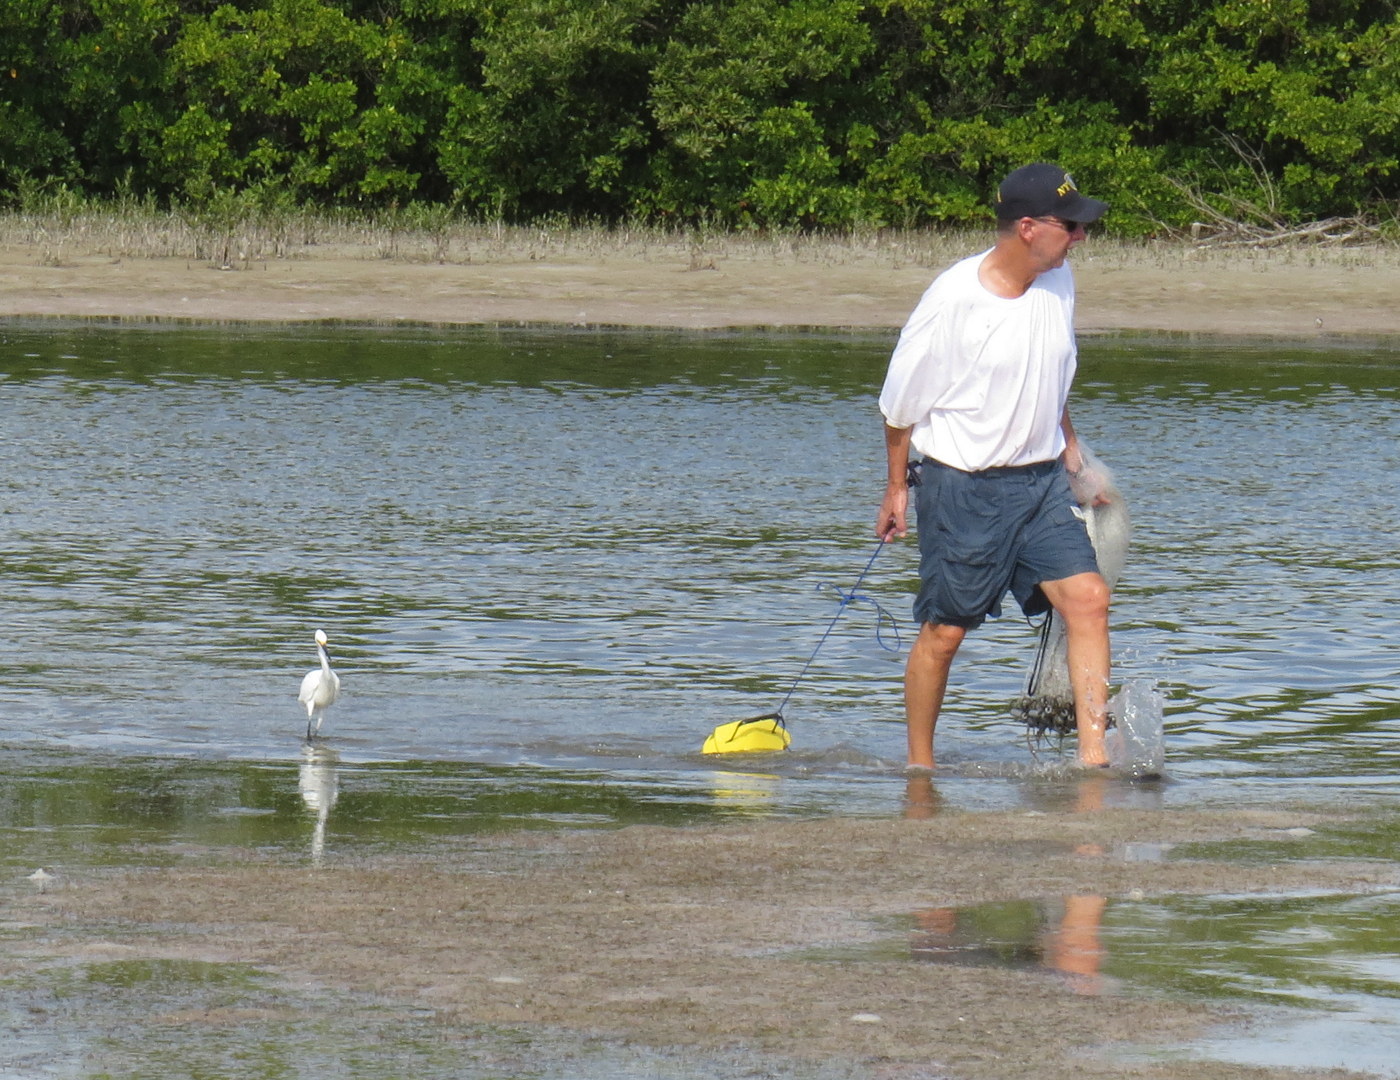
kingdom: Animalia
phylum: Chordata
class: Aves
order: Pelecaniformes
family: Ardeidae
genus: Egretta
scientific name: Egretta thula
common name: Snowy egret
